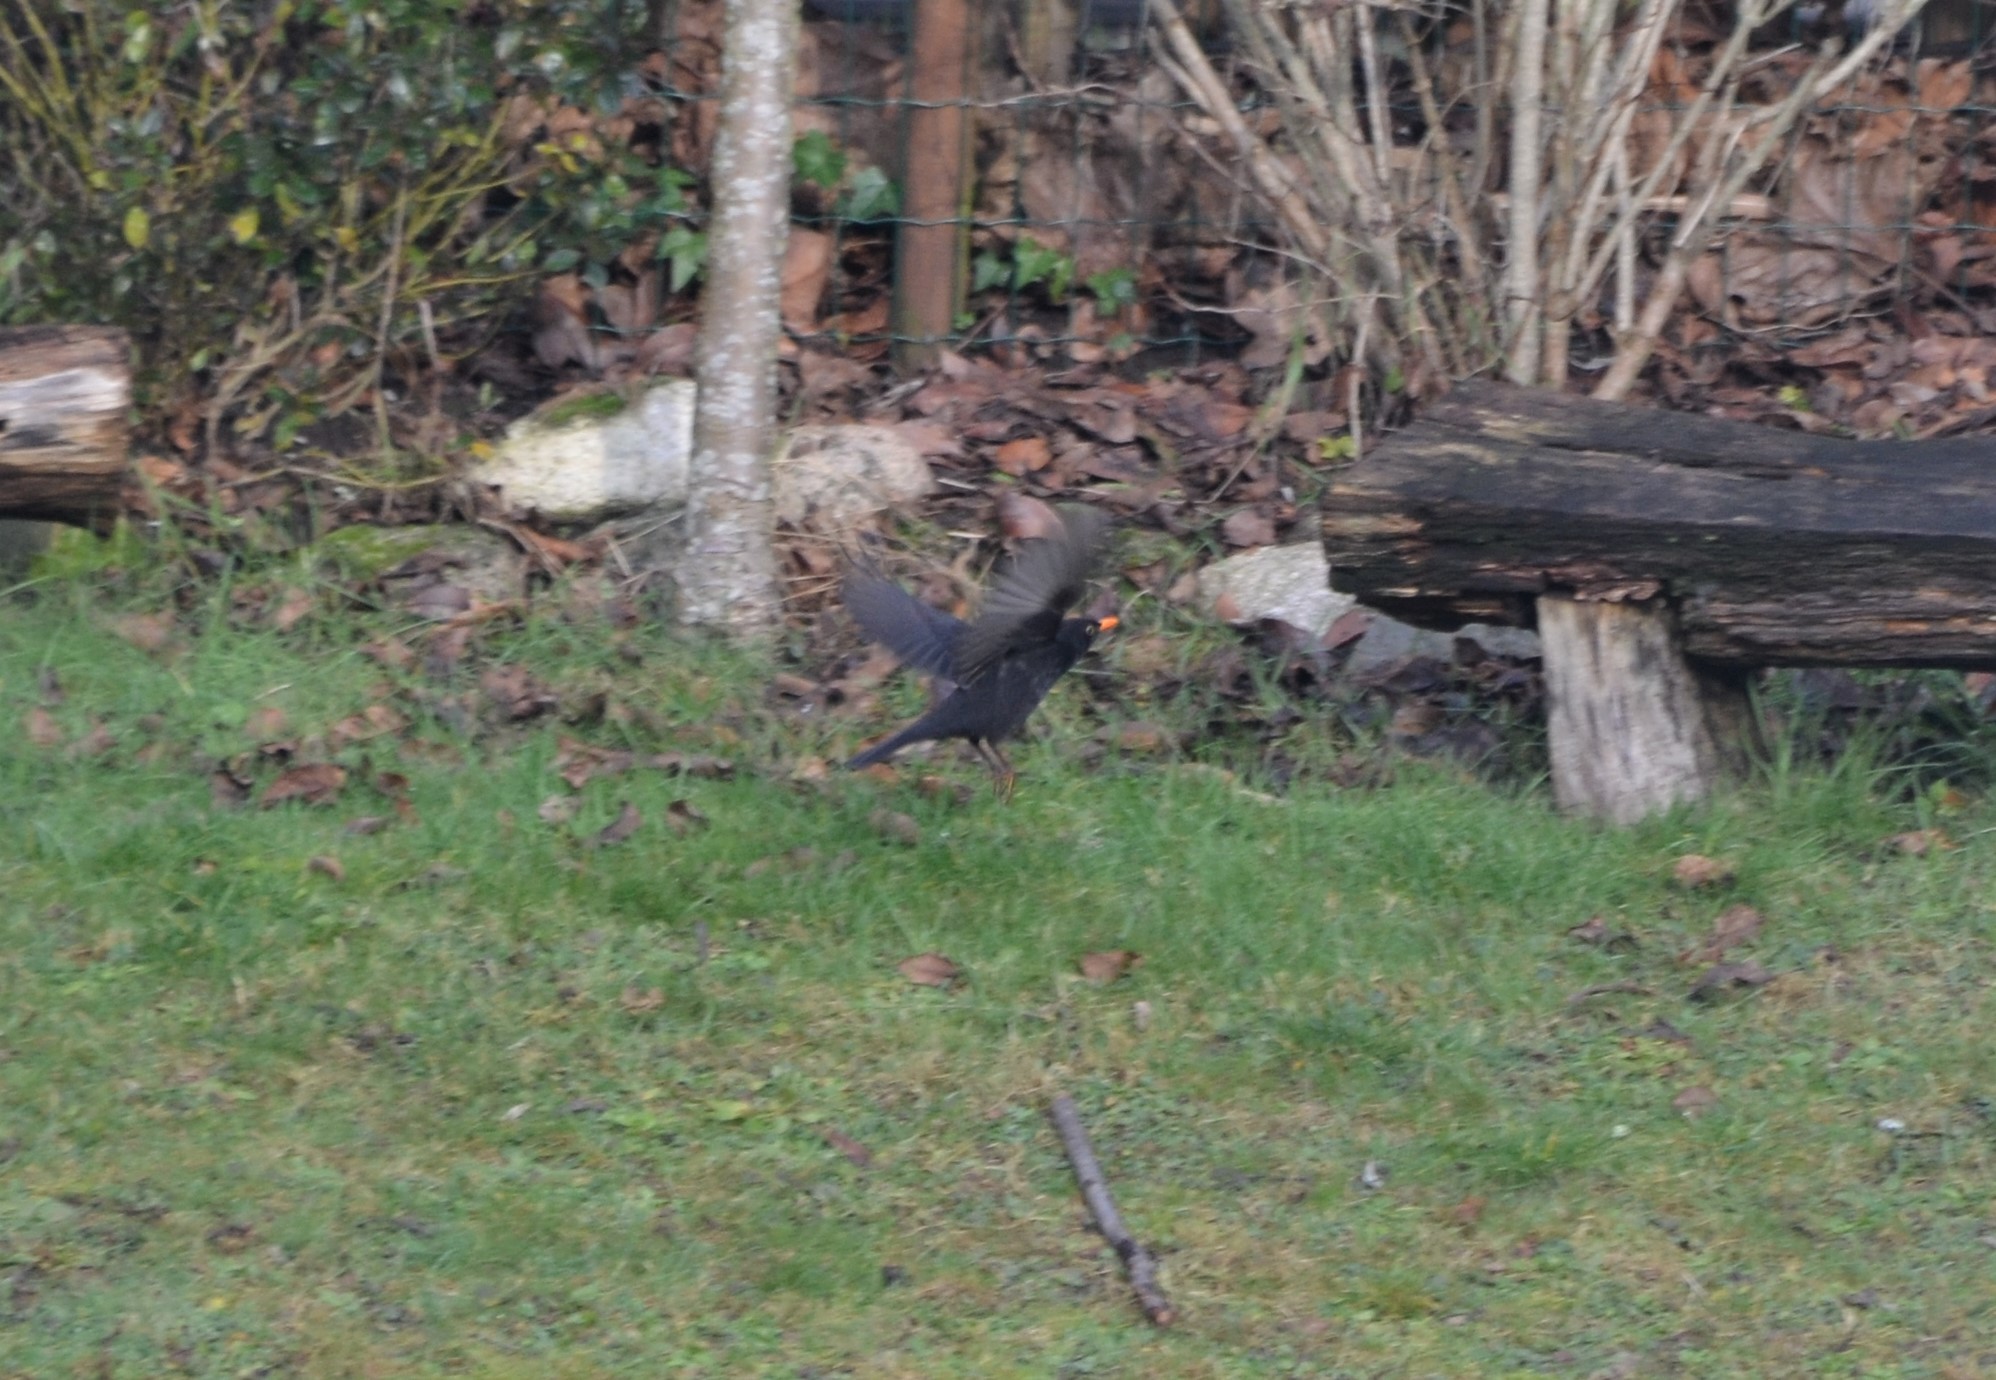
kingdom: Animalia
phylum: Chordata
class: Aves
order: Passeriformes
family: Turdidae
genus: Turdus
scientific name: Turdus merula
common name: Common blackbird
